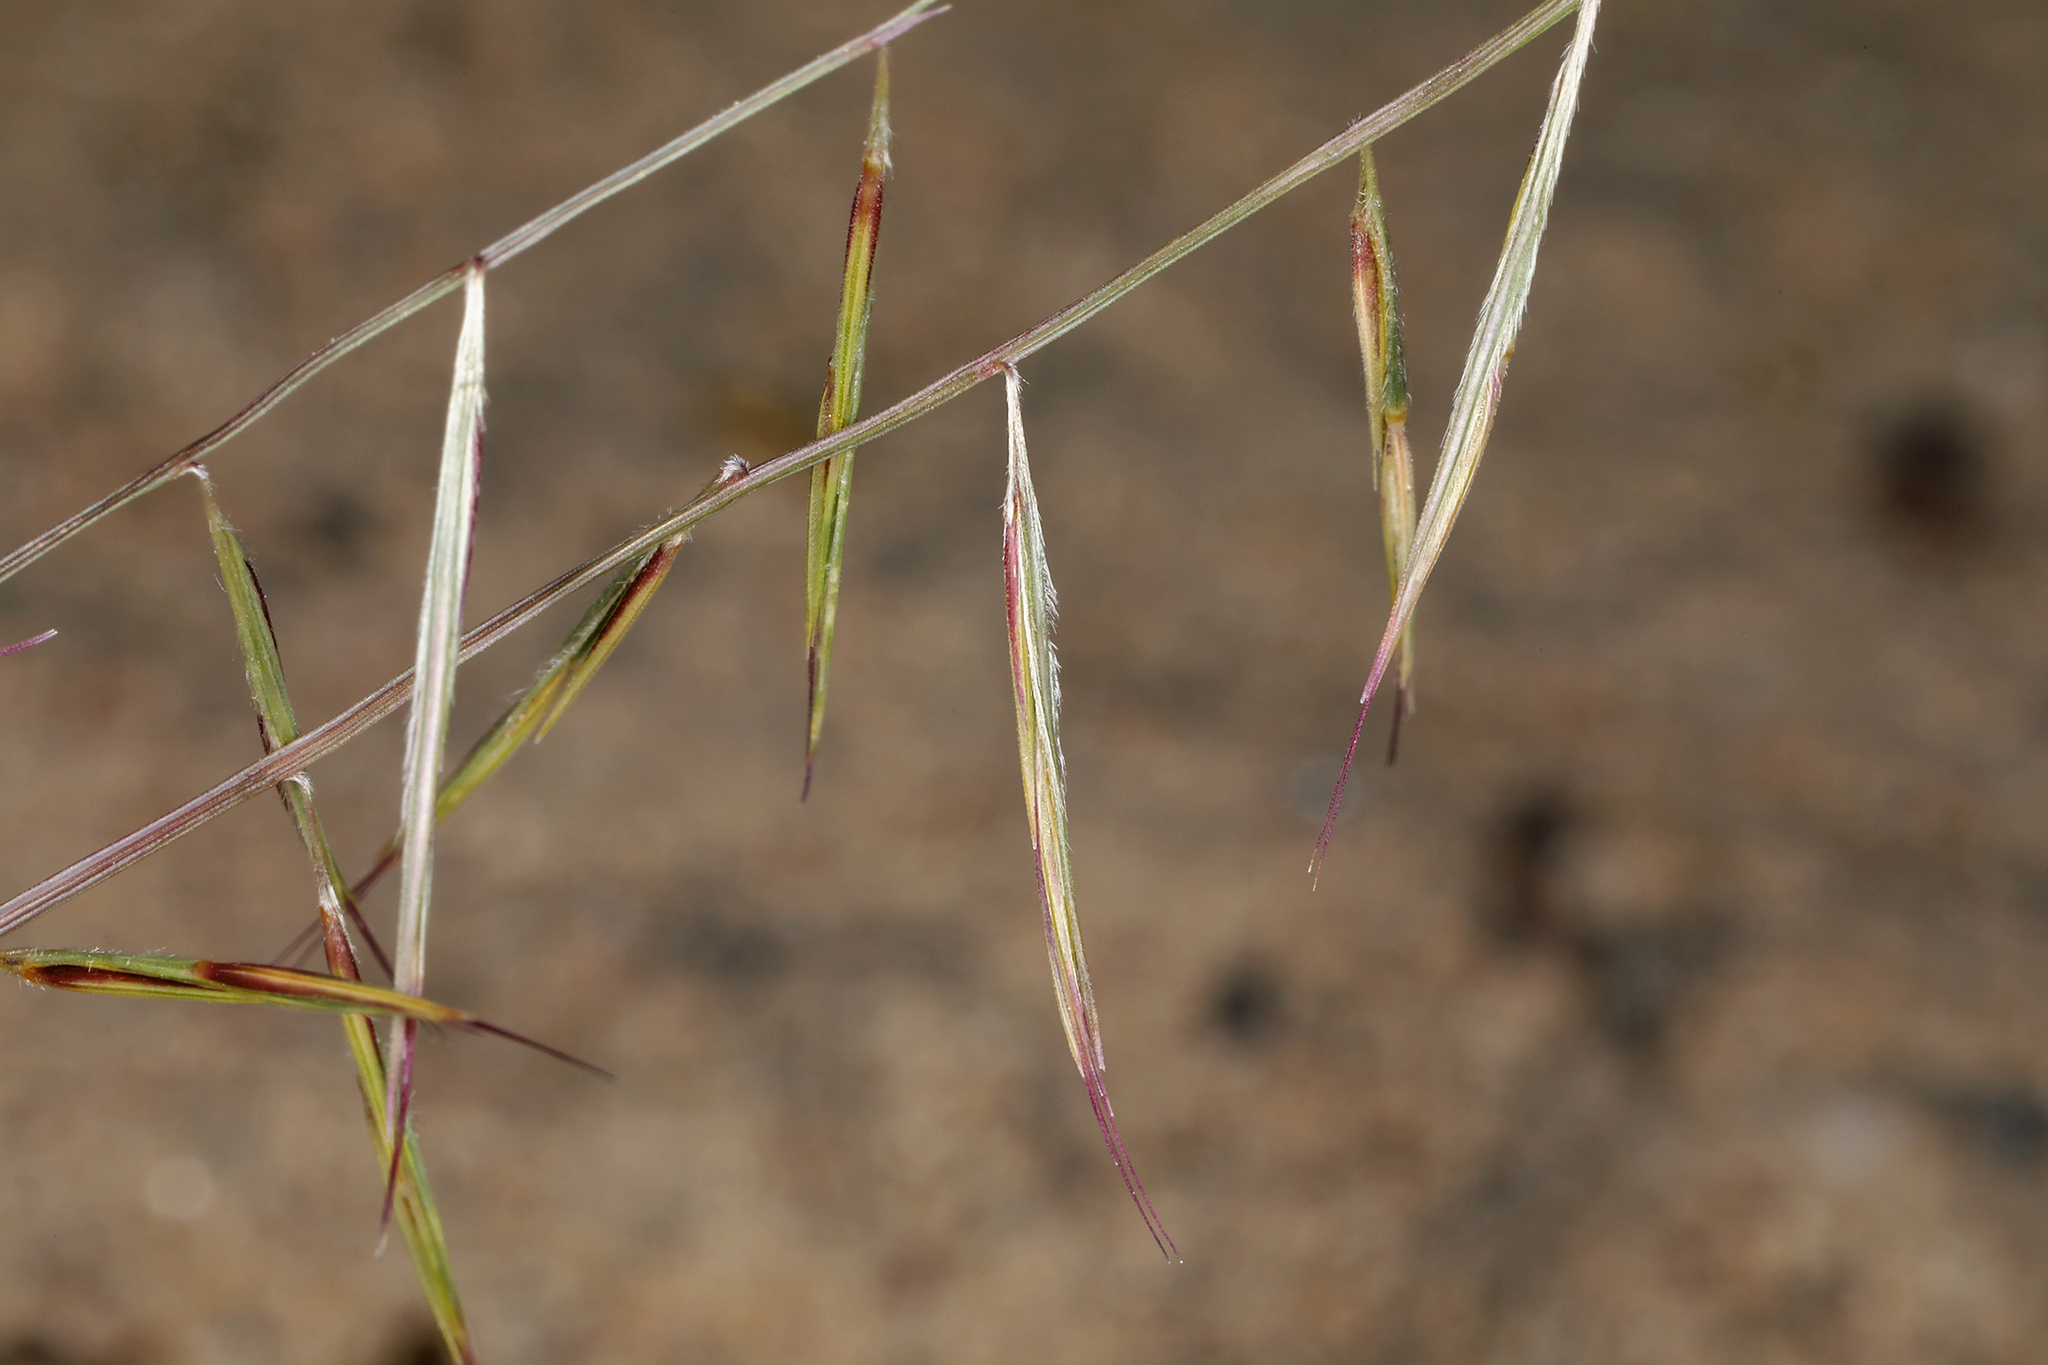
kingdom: Plantae
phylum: Tracheophyta
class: Liliopsida
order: Poales
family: Poaceae
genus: Bouteloua
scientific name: Bouteloua aristidoides
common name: Needle grama
